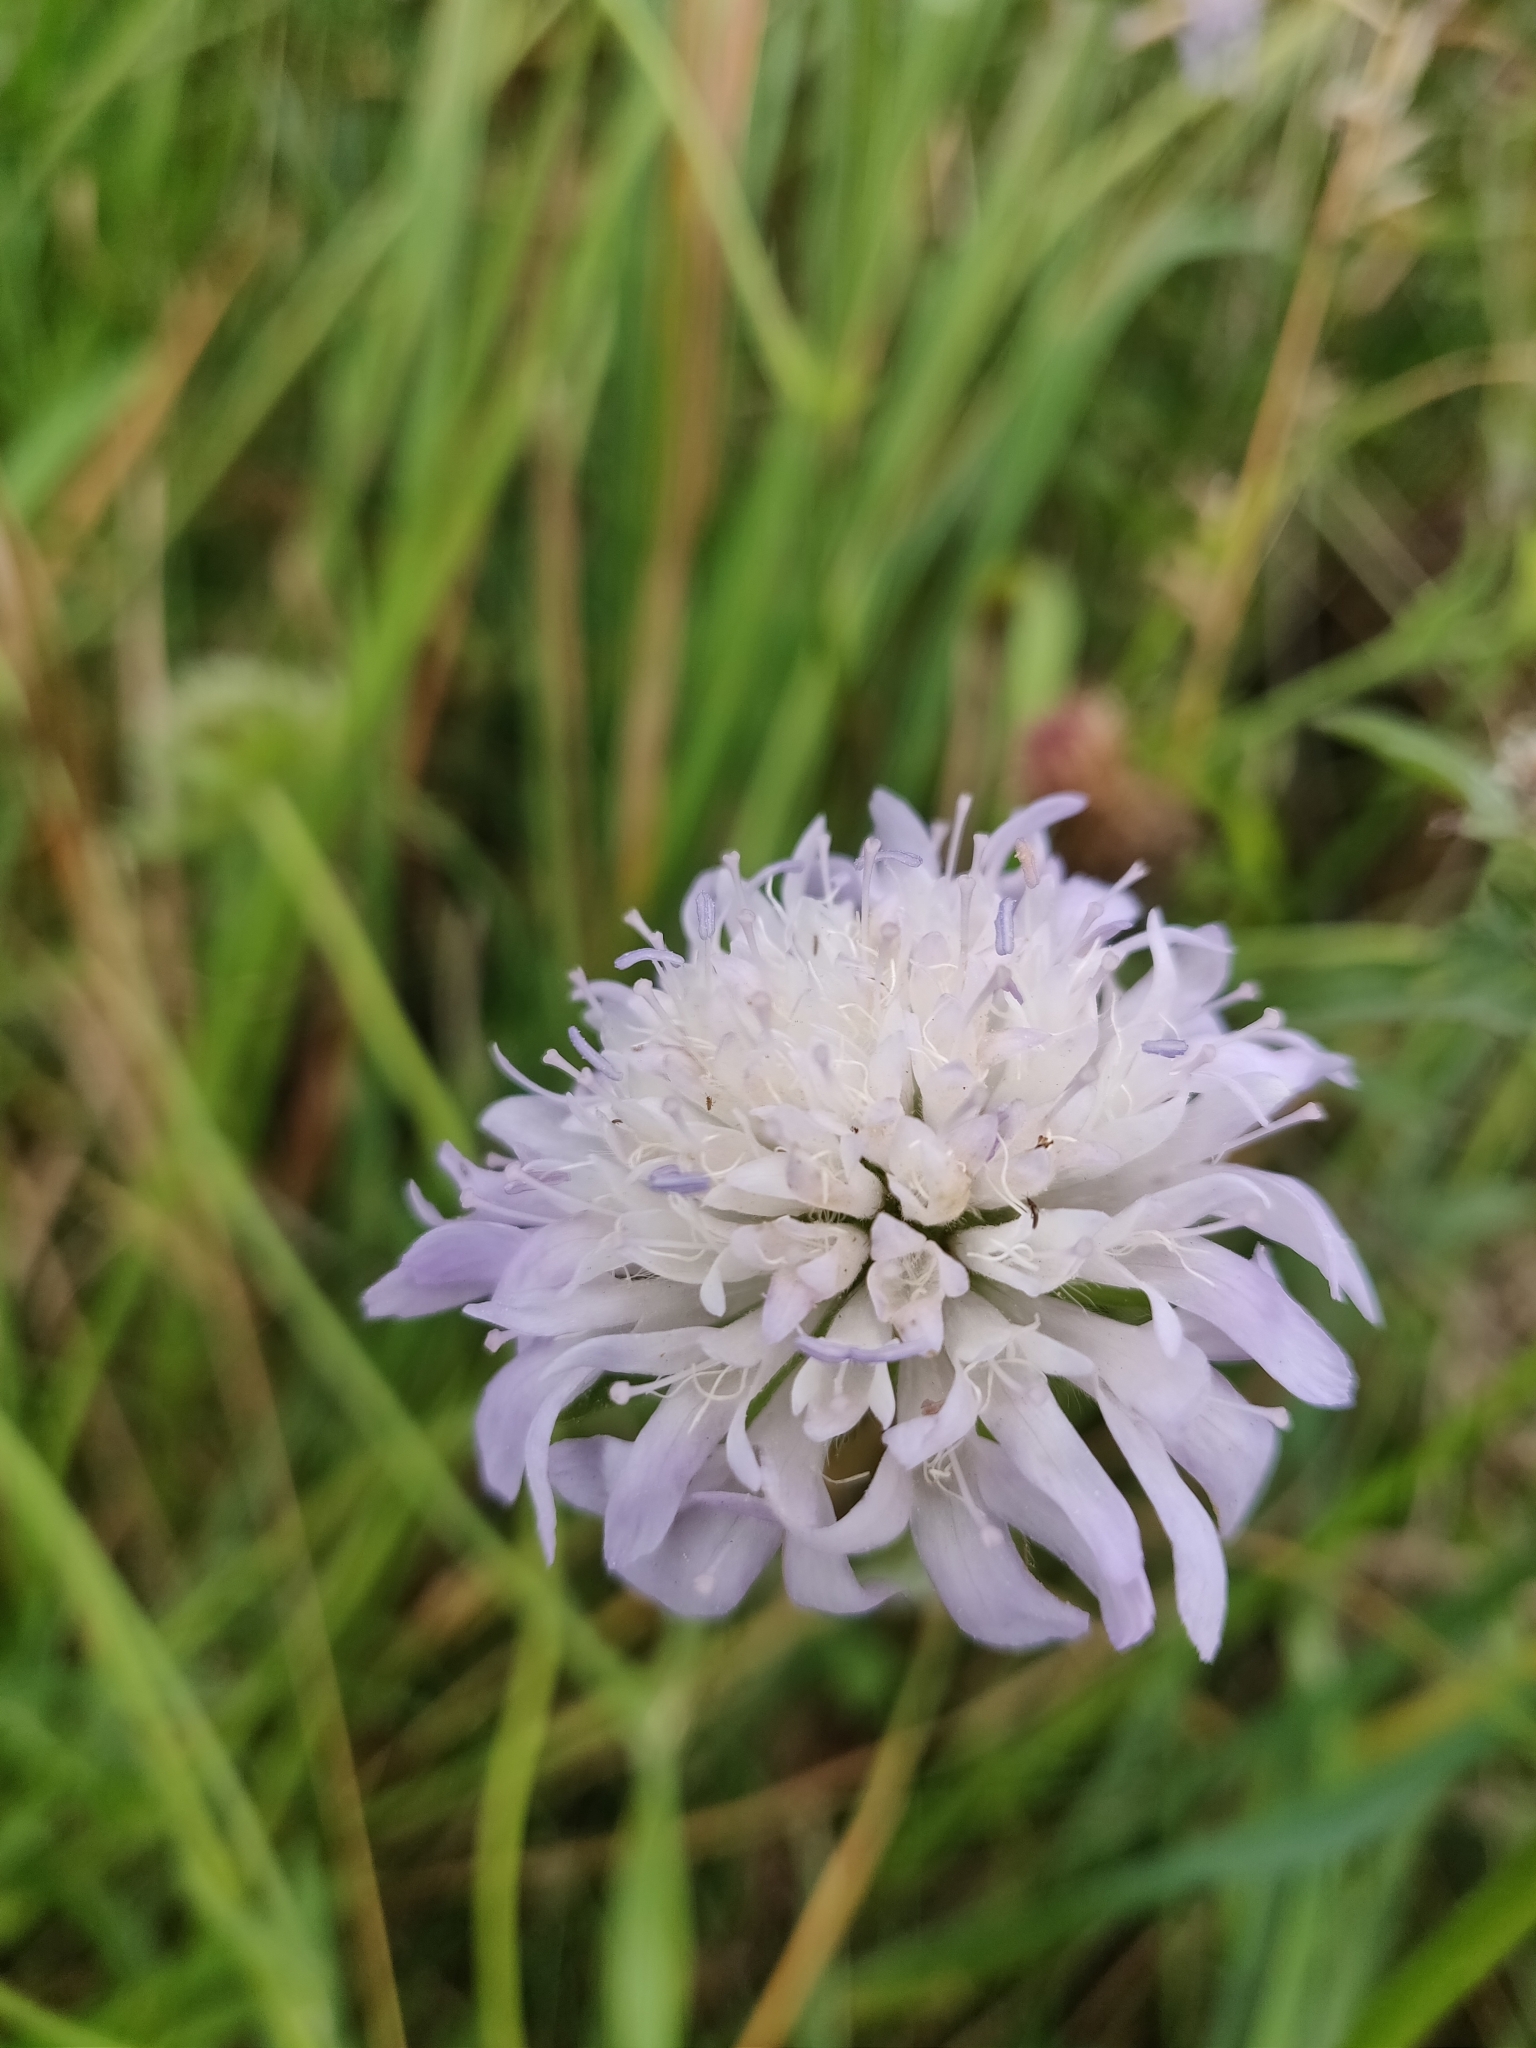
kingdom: Plantae
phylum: Tracheophyta
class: Magnoliopsida
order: Dipsacales
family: Caprifoliaceae
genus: Knautia
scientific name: Knautia arvensis
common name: Field scabiosa
